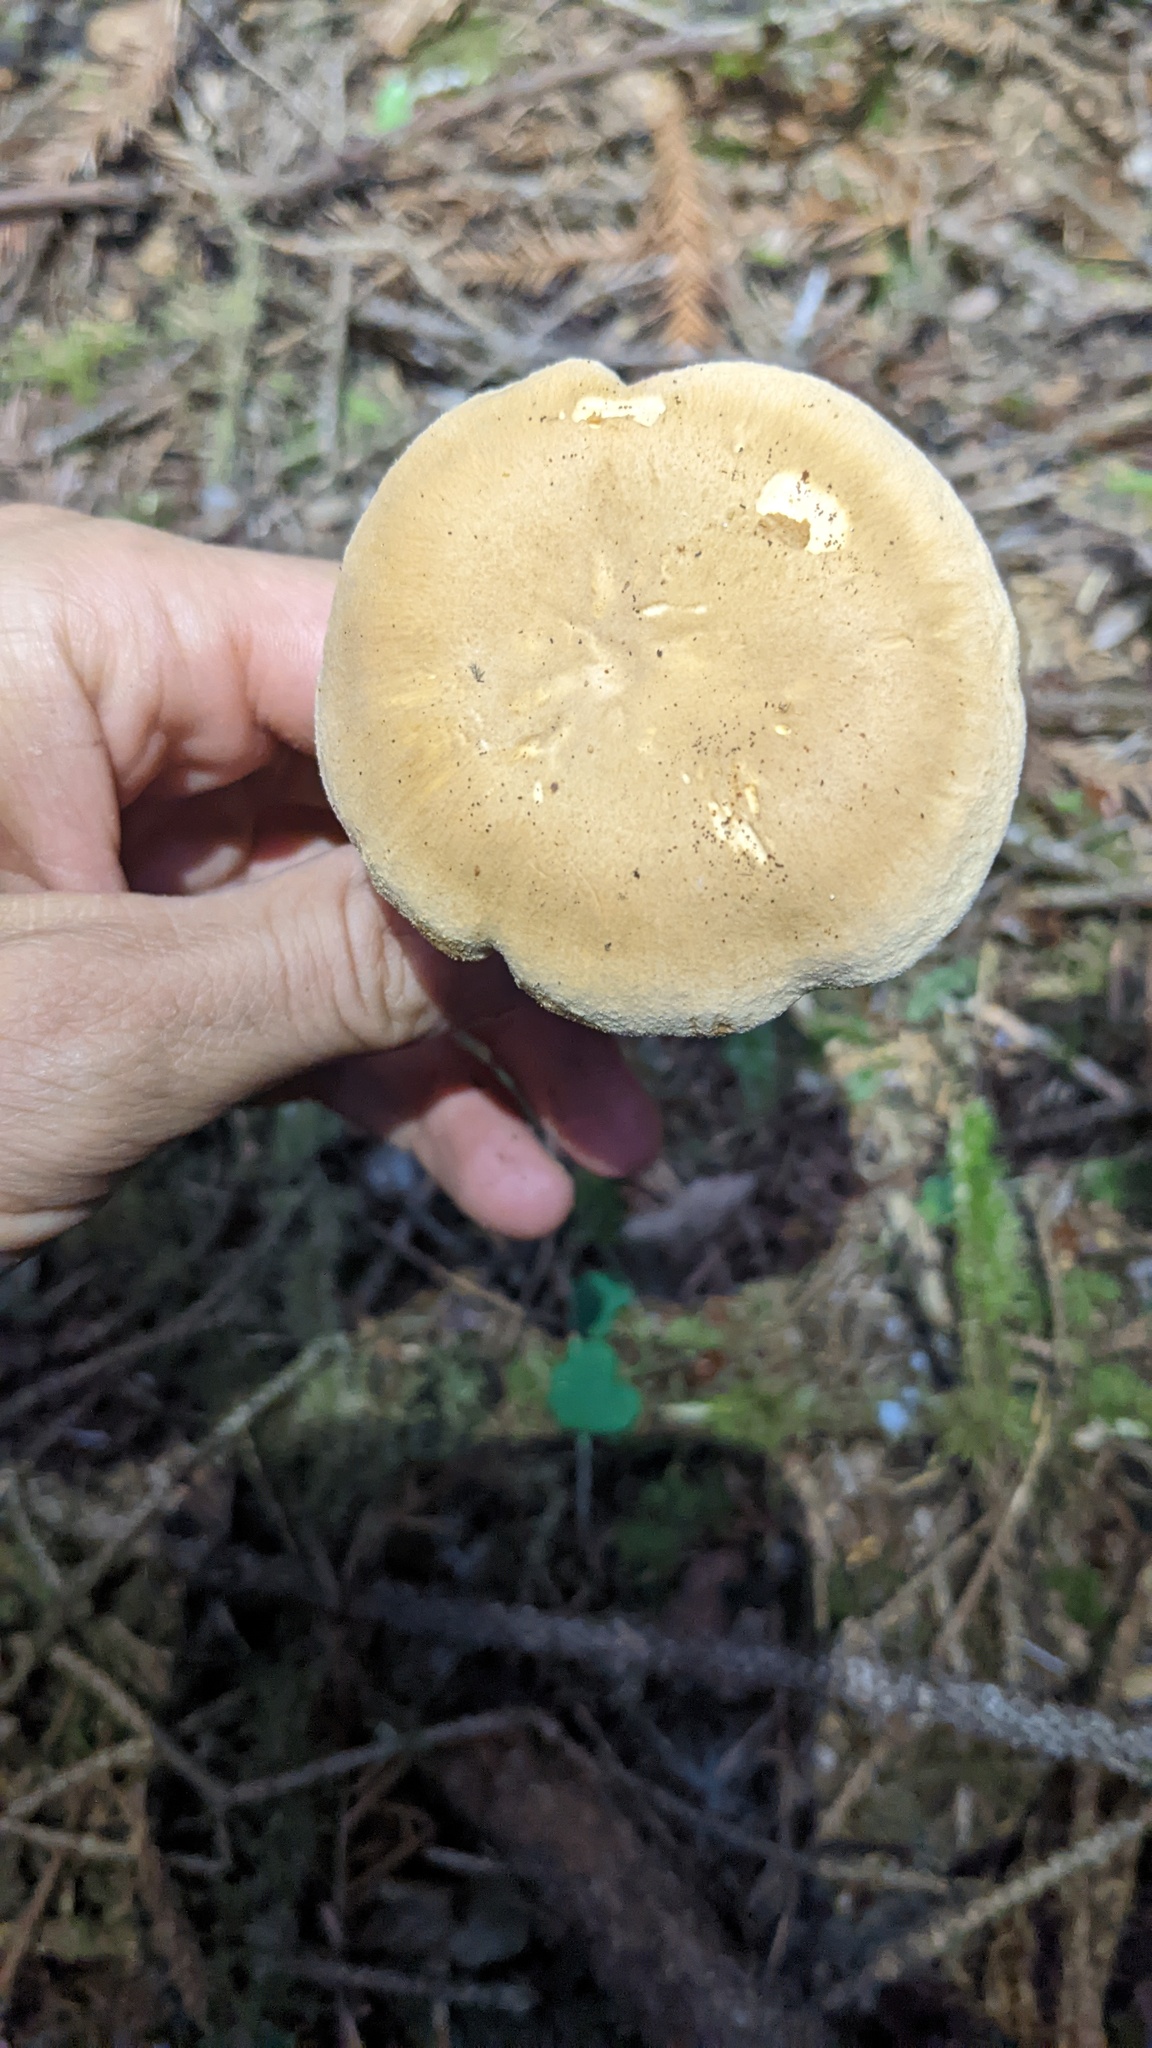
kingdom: Fungi
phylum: Basidiomycota
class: Agaricomycetes
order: Cantharellales
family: Hydnaceae
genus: Cantharellus
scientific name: Cantharellus formosus
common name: Pacific golden chanterelle
